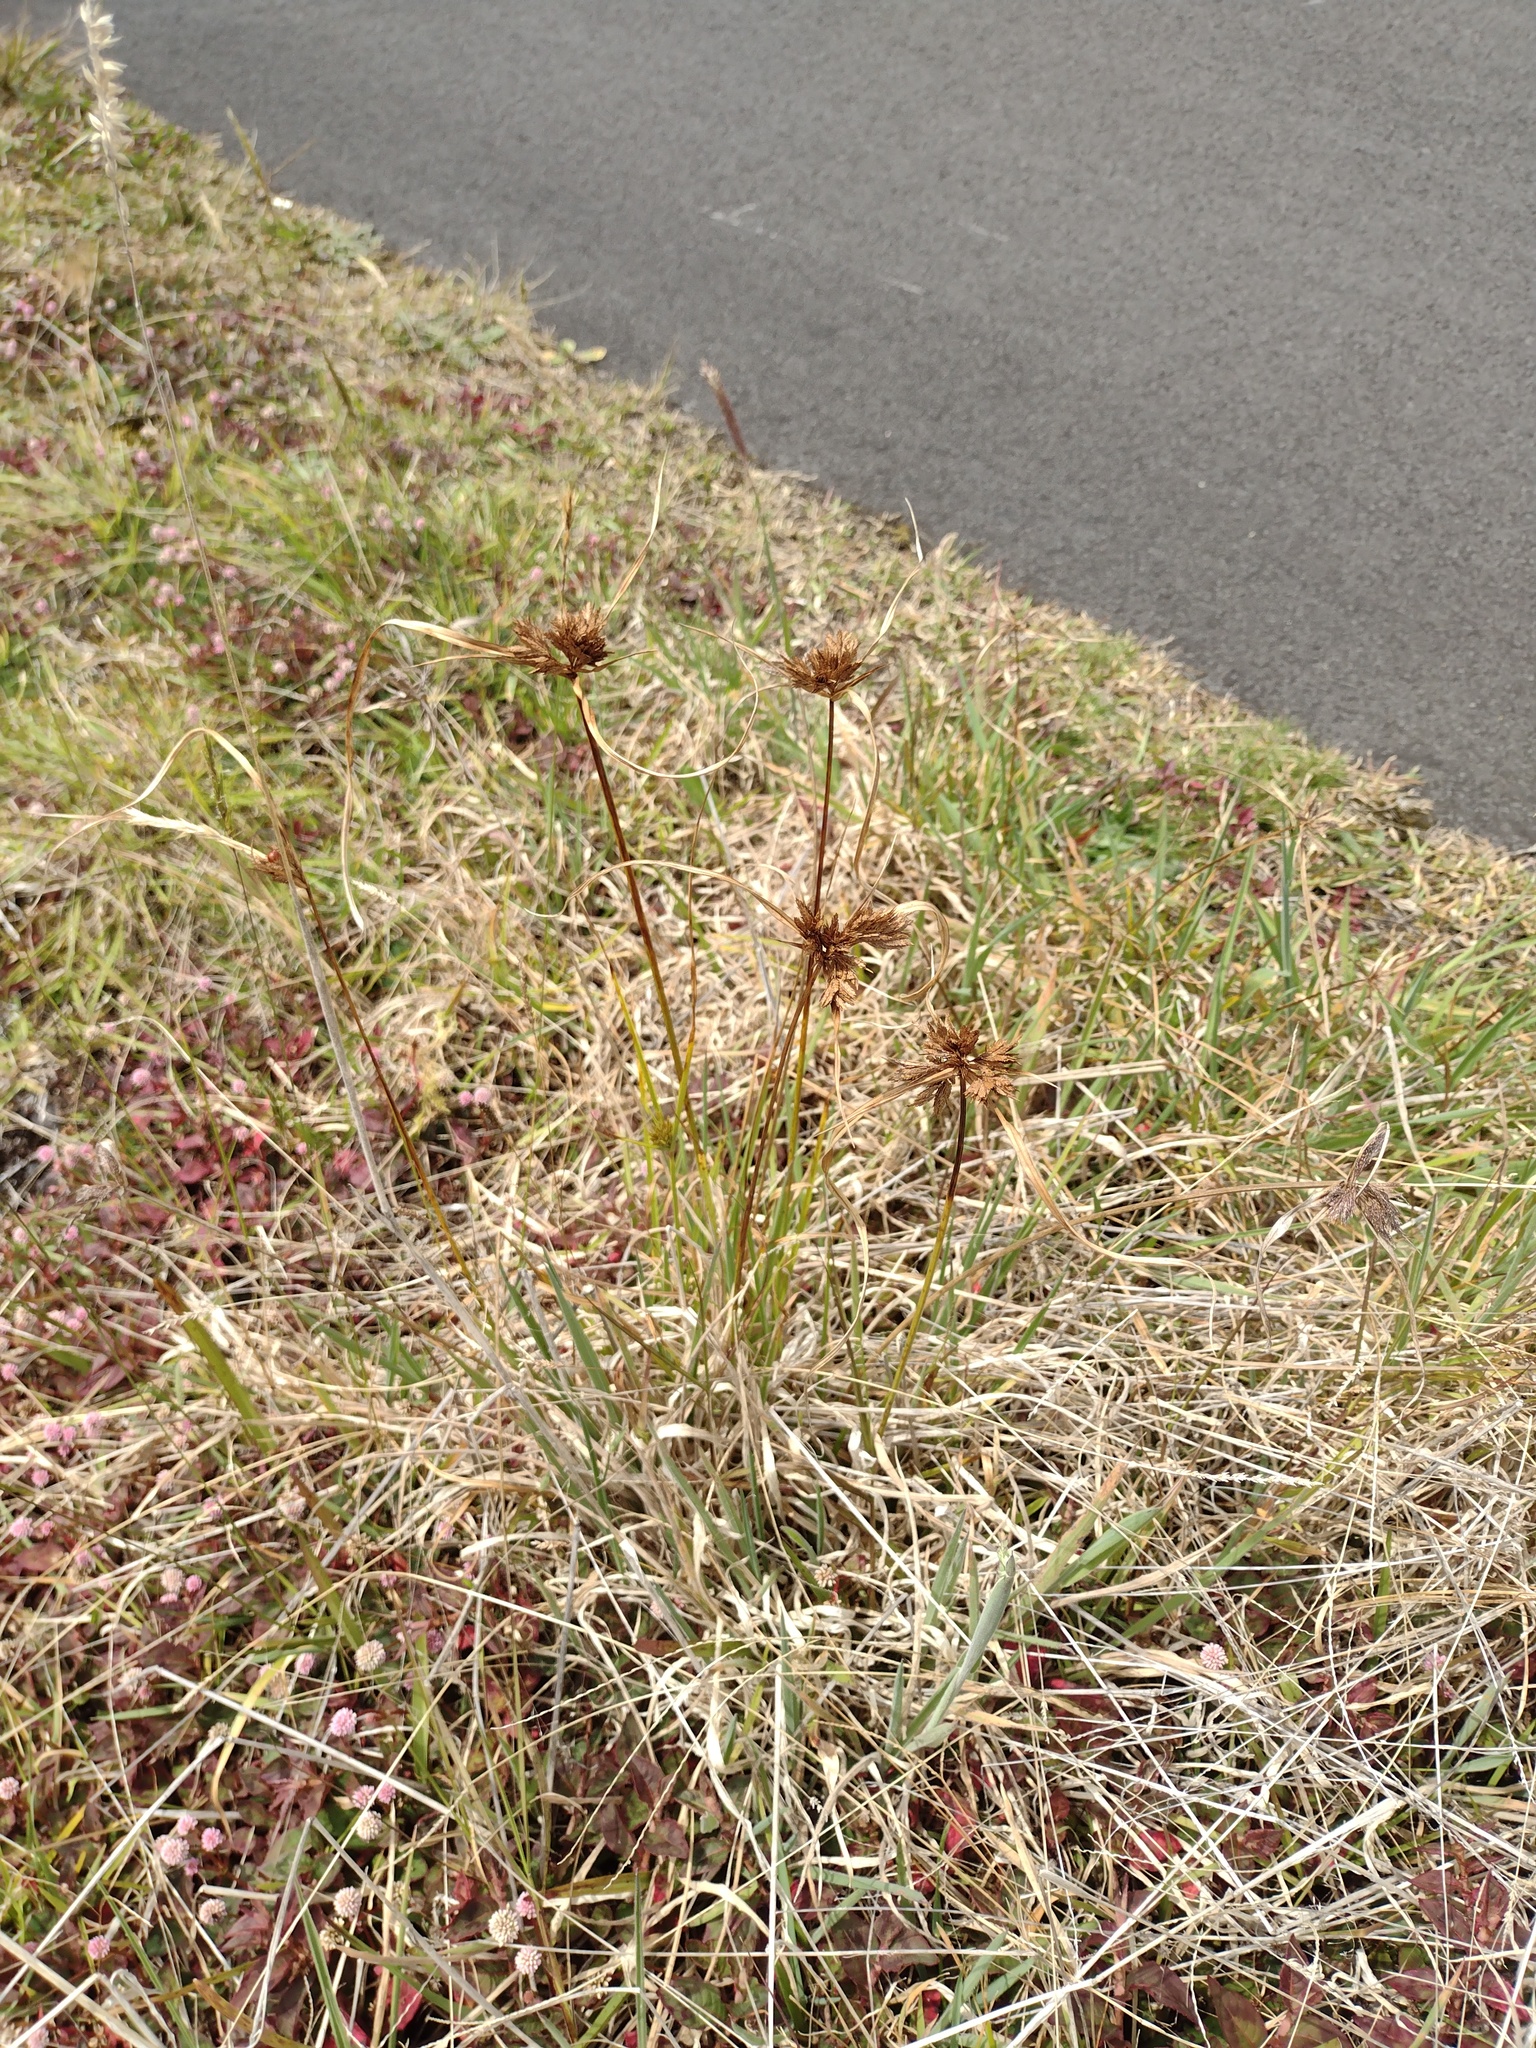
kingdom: Plantae
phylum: Tracheophyta
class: Liliopsida
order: Poales
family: Cyperaceae
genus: Cyperus
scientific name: Cyperus polystachyos
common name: Bunchy flat sedge
